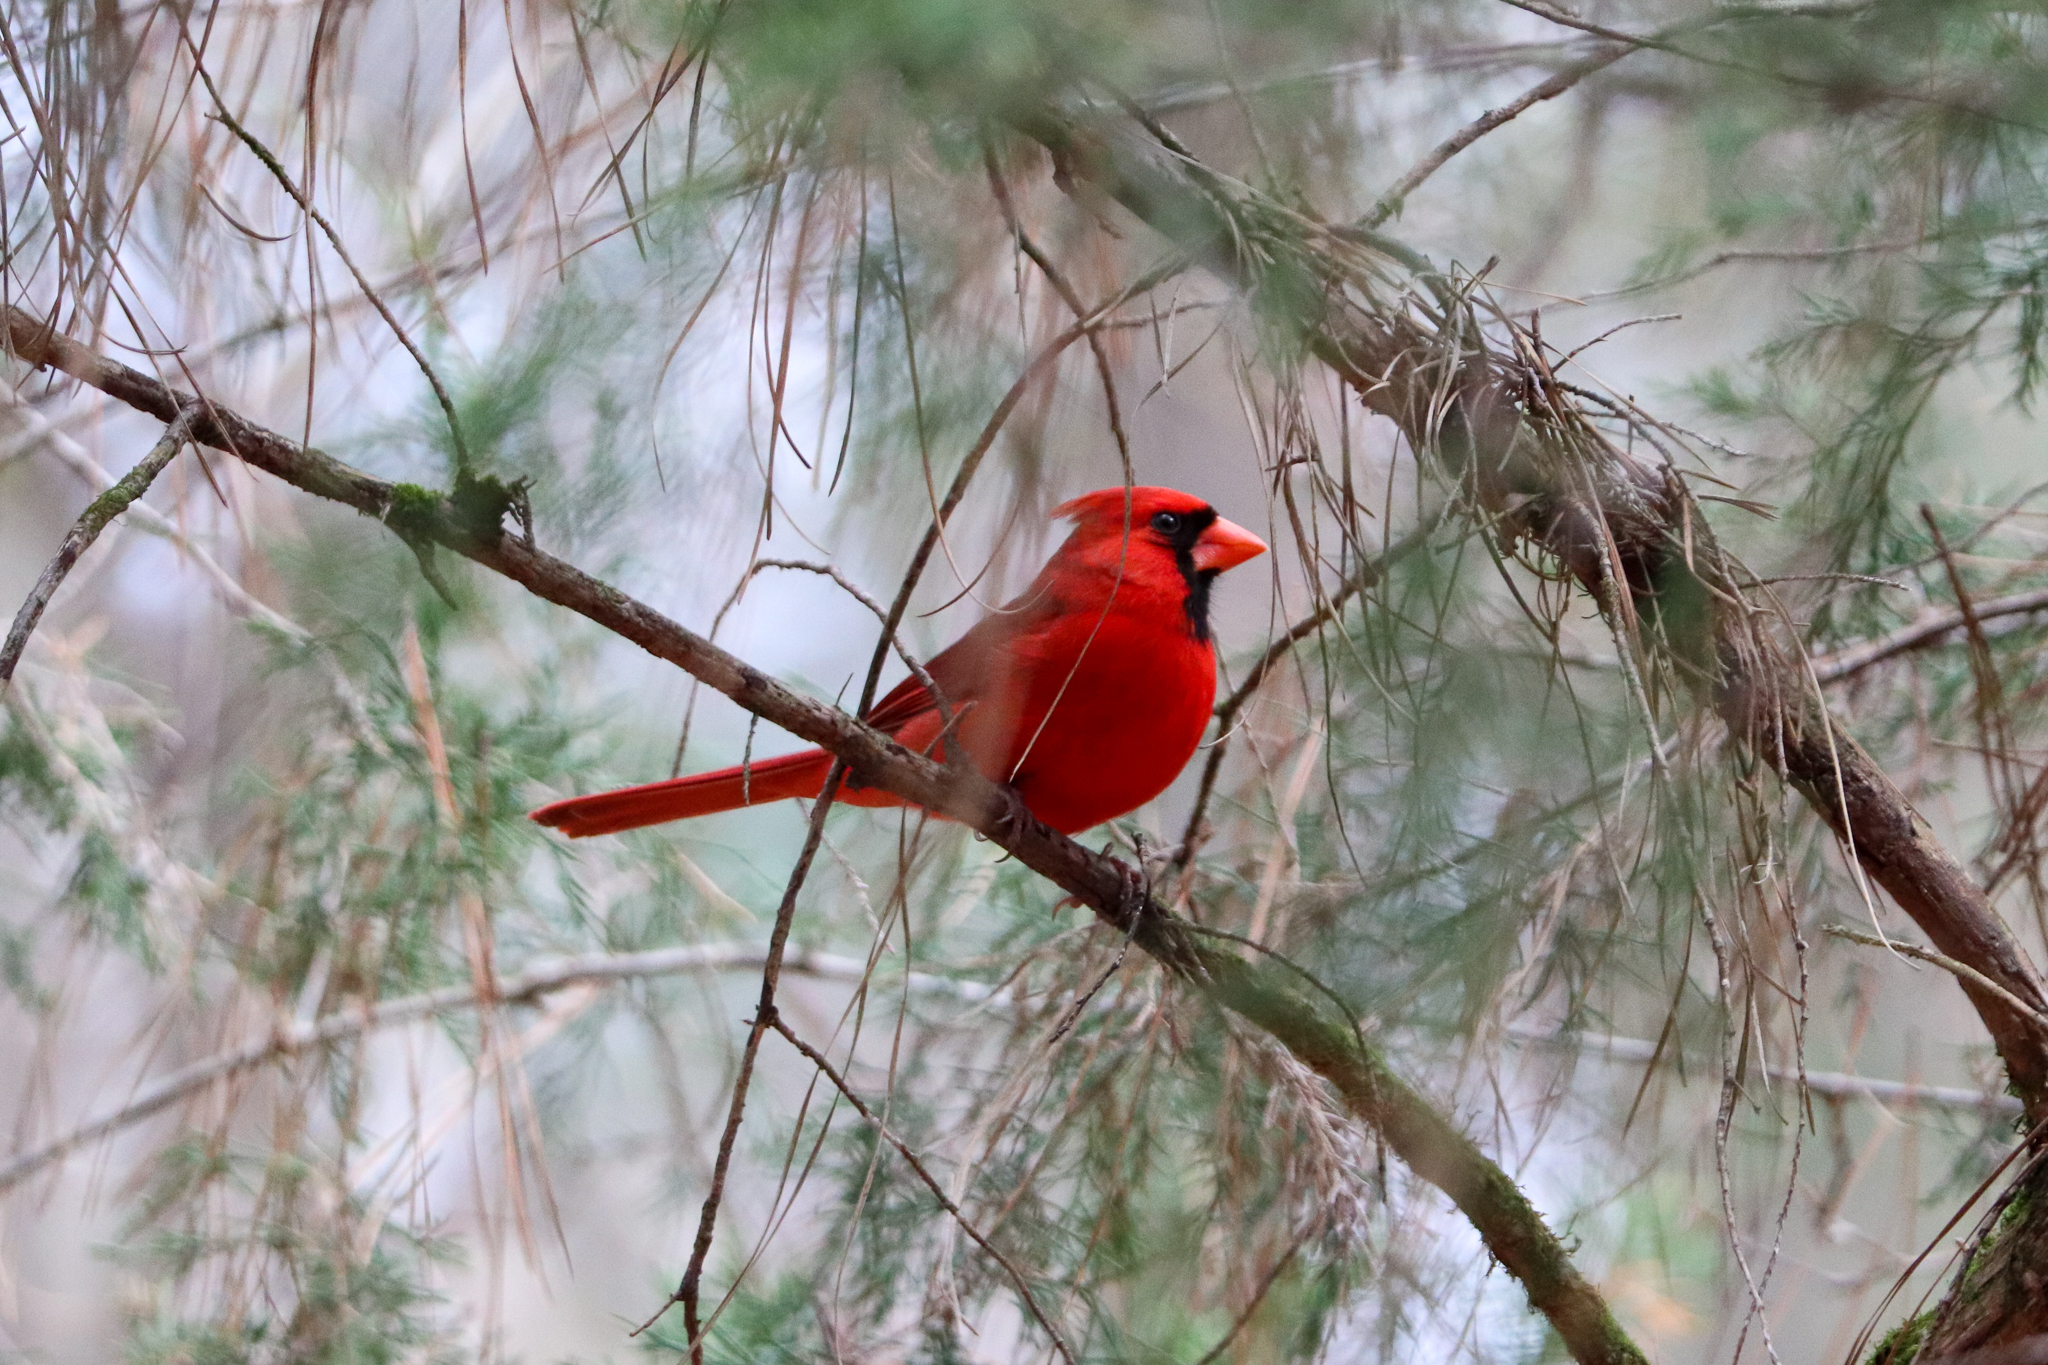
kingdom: Animalia
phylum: Chordata
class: Aves
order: Passeriformes
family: Cardinalidae
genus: Cardinalis
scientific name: Cardinalis cardinalis
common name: Northern cardinal
